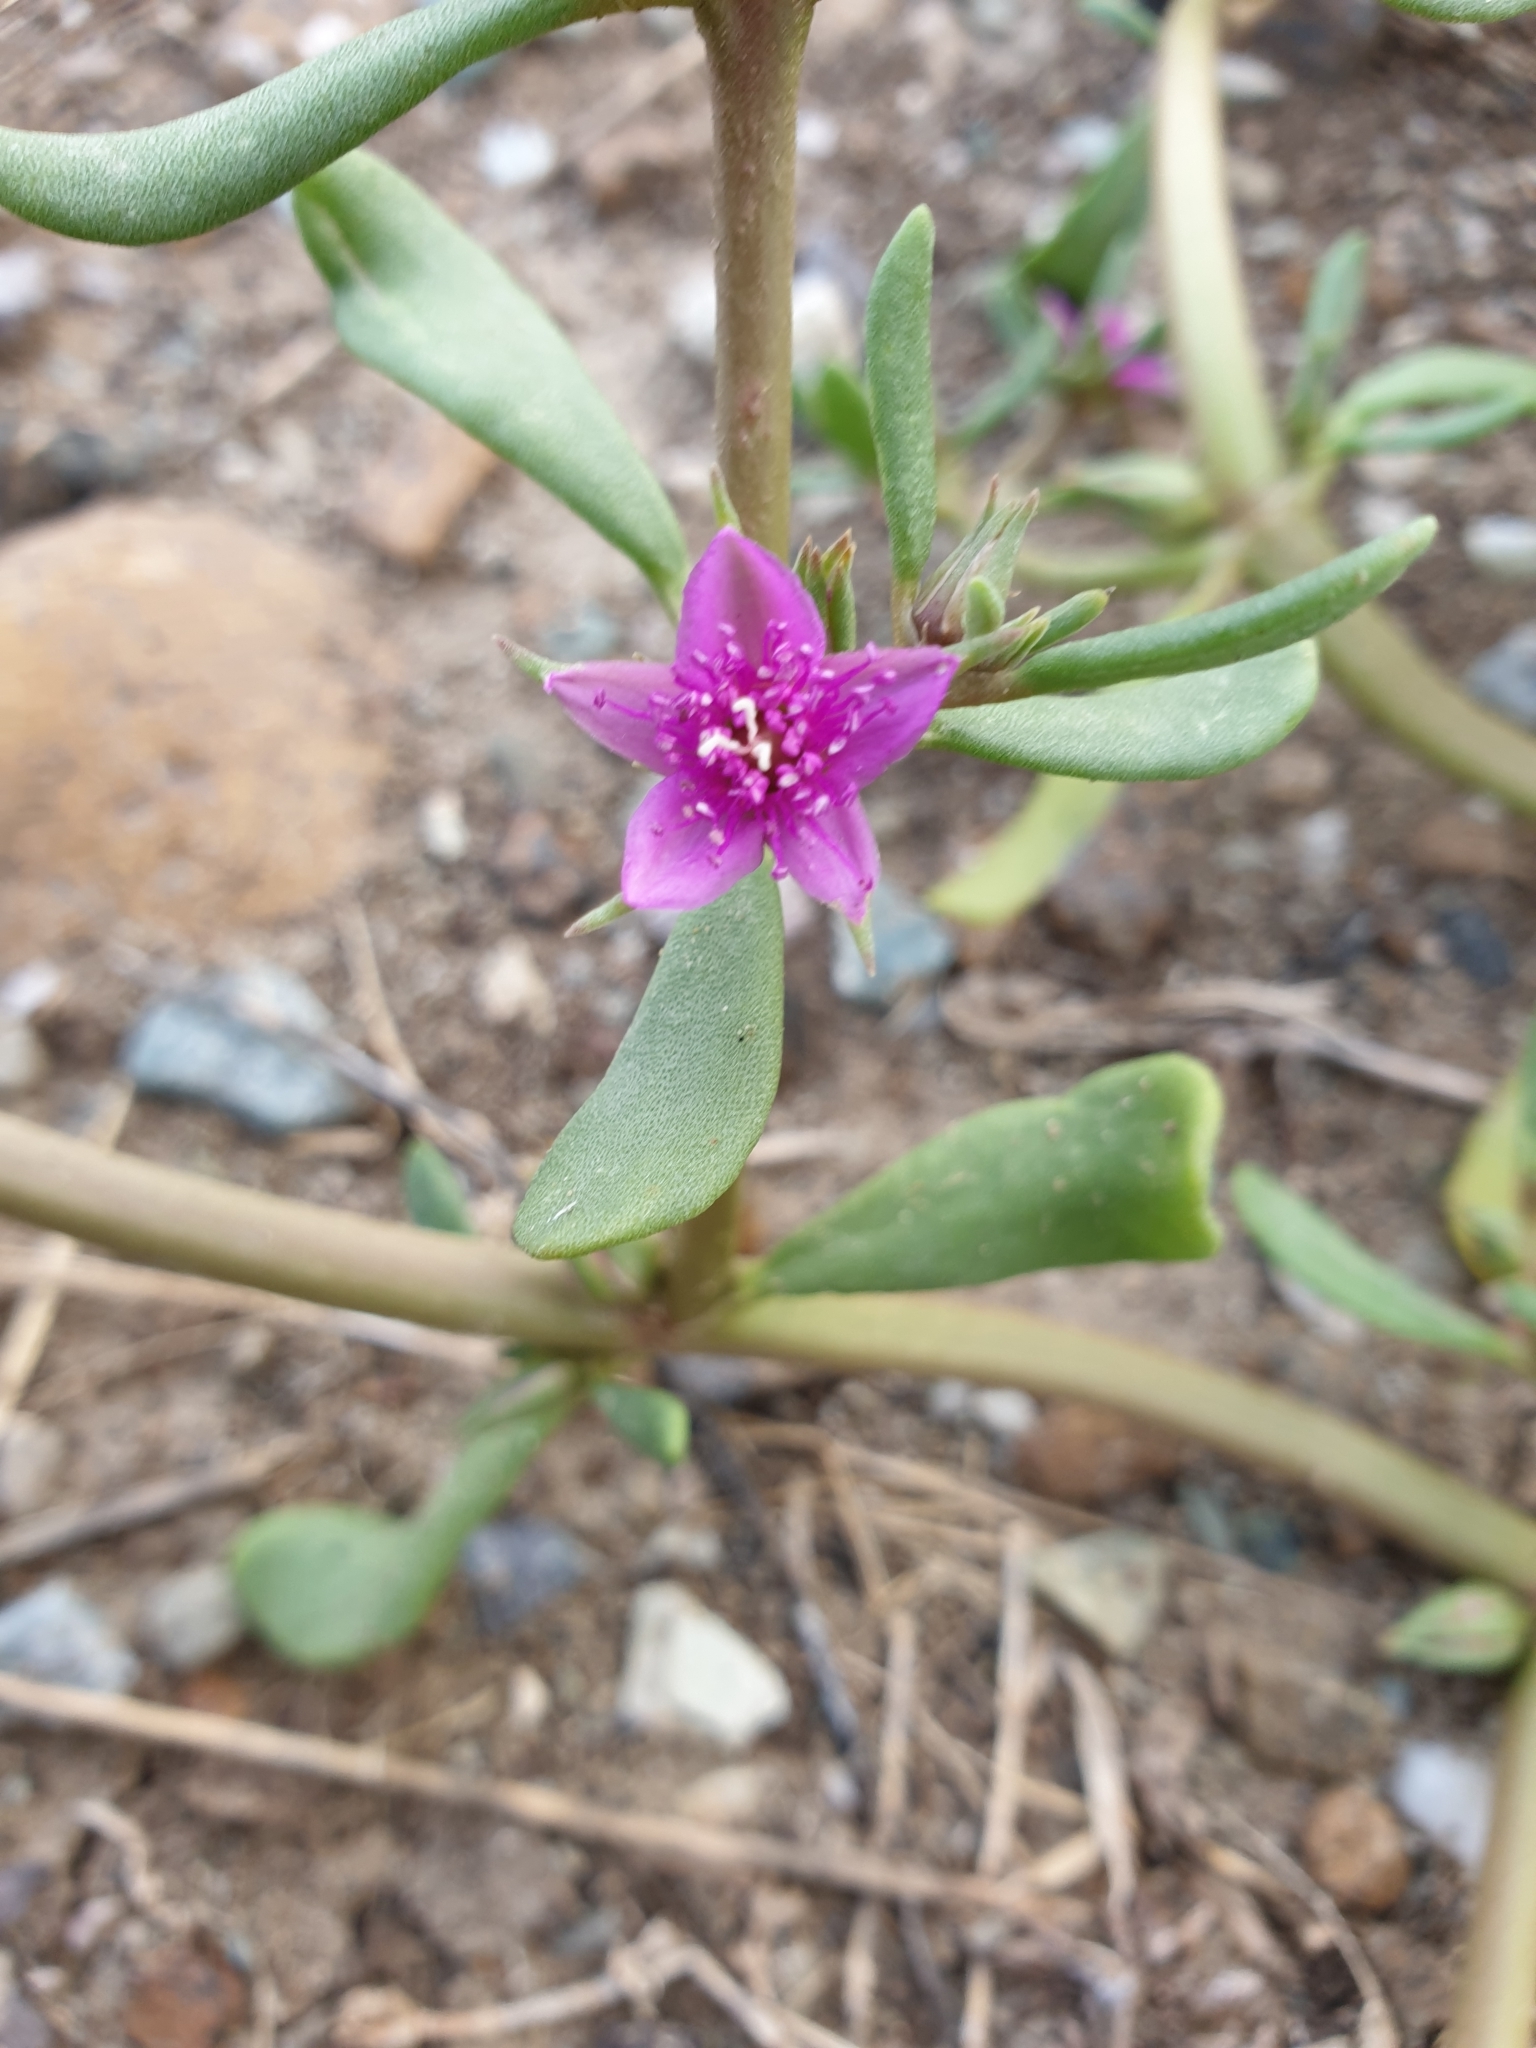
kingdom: Plantae
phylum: Tracheophyta
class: Magnoliopsida
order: Caryophyllales
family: Aizoaceae
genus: Sesuvium
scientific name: Sesuvium portulacastrum
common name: Sea-purslane
